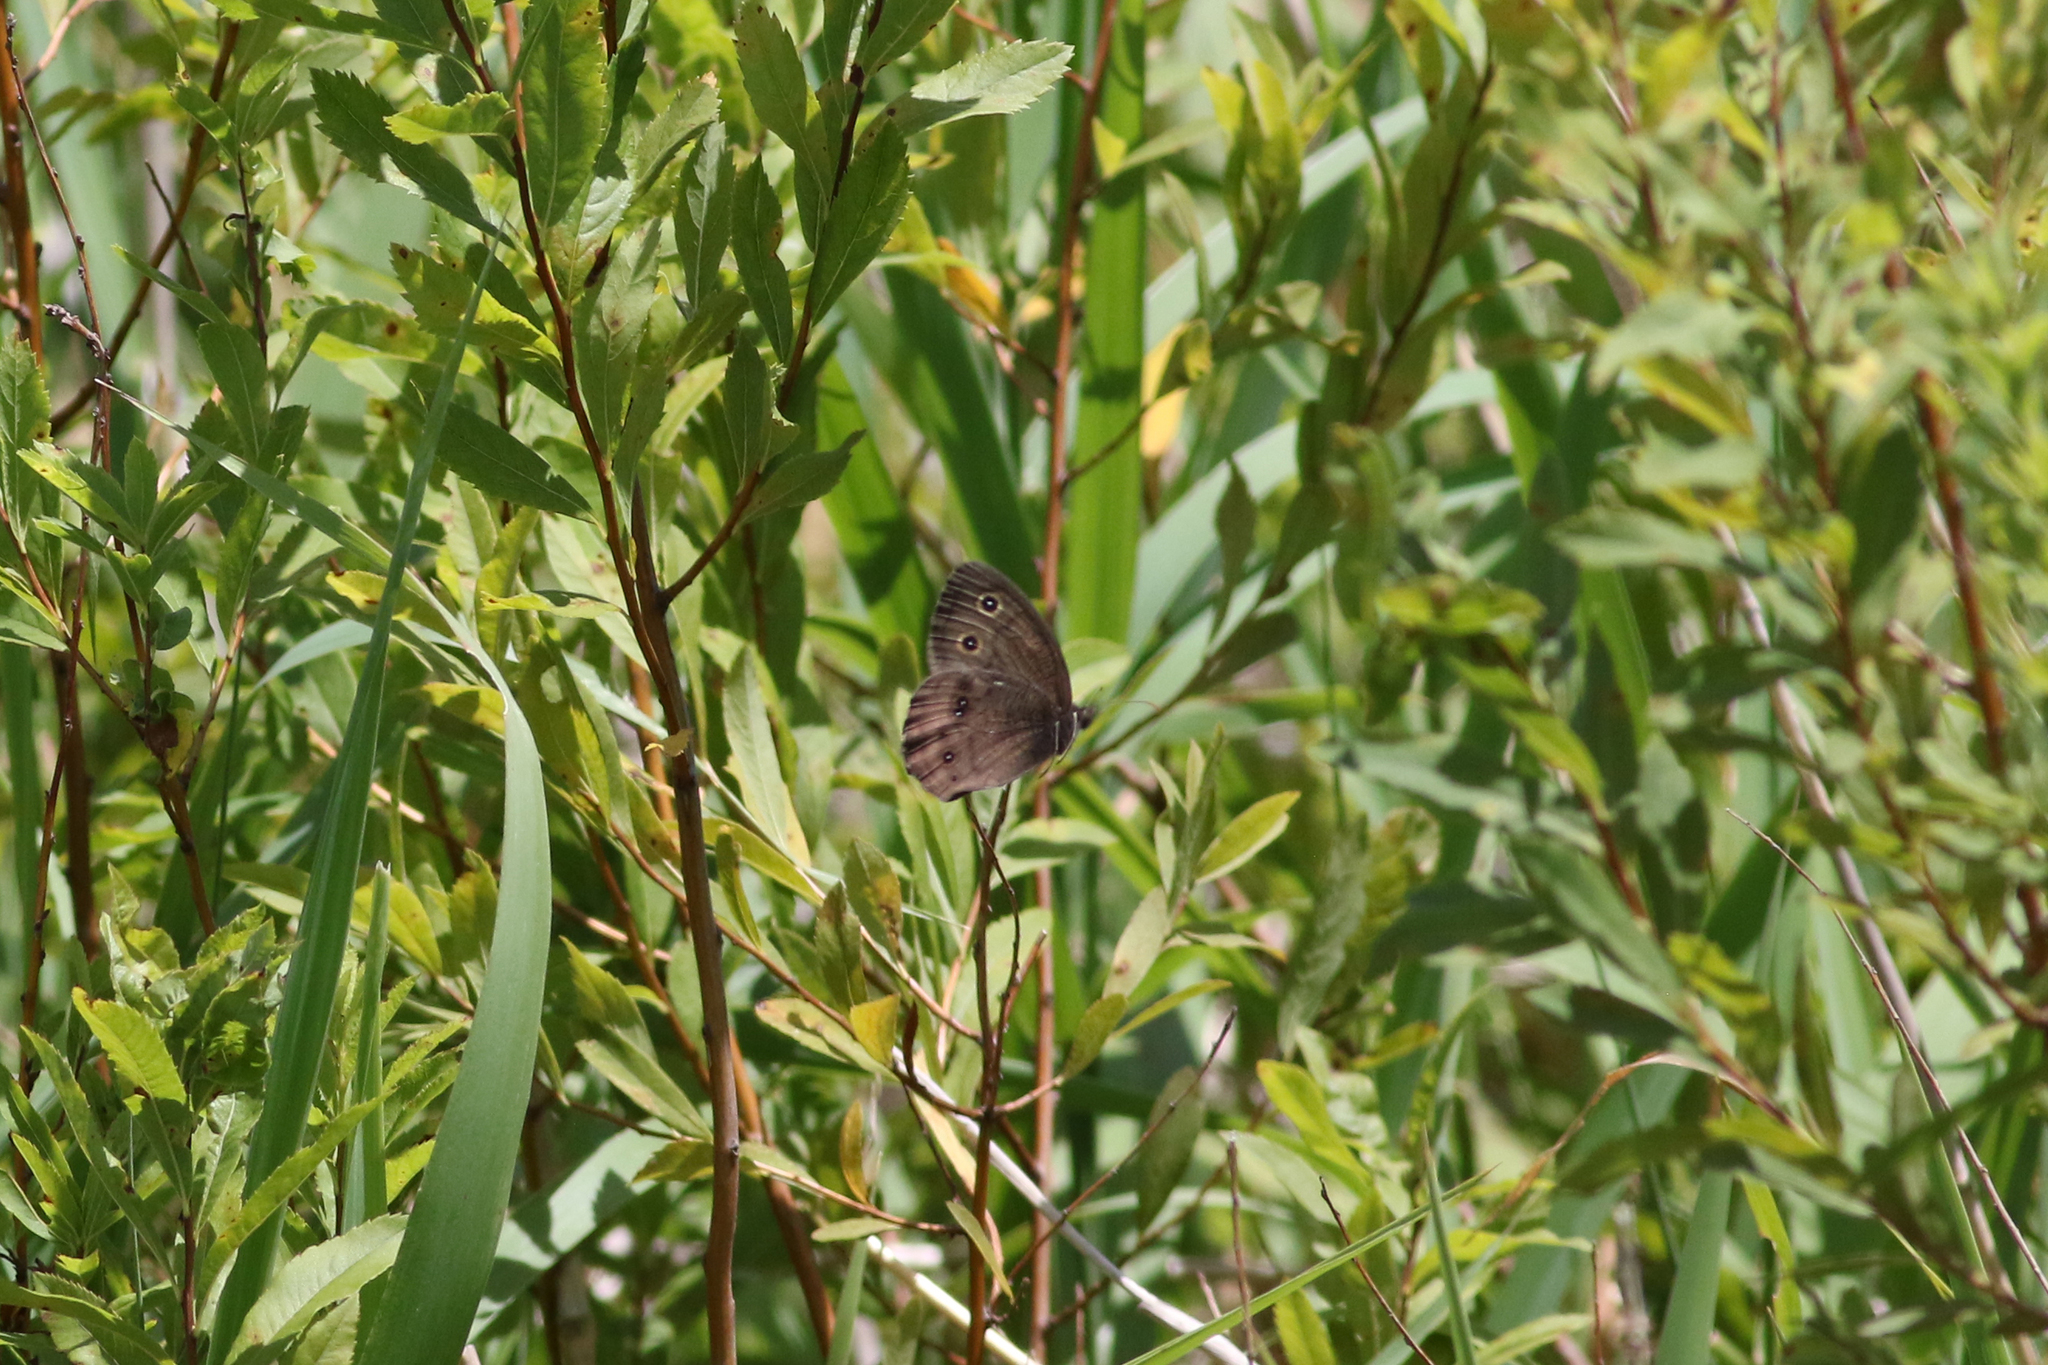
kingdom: Animalia
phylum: Arthropoda
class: Insecta
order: Lepidoptera
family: Nymphalidae
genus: Cercyonis
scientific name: Cercyonis pegala
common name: Common wood-nymph
